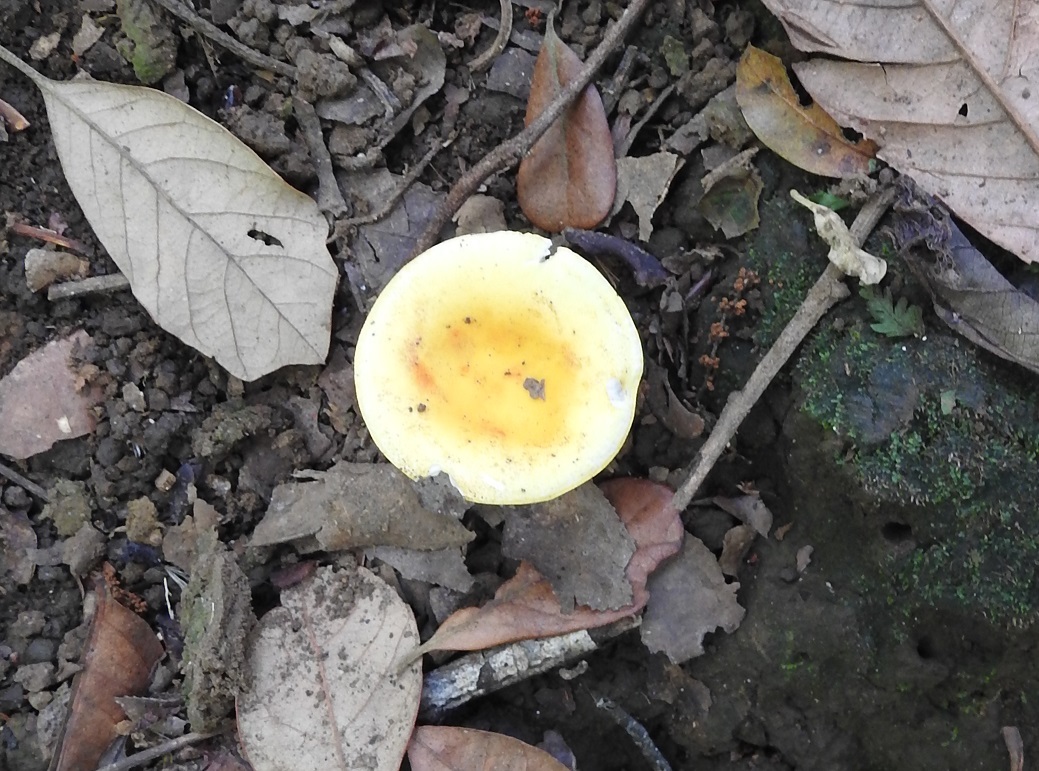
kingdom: Fungi
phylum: Basidiomycota
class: Agaricomycetes
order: Russulales
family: Russulaceae
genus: Russula
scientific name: Russula flavida
